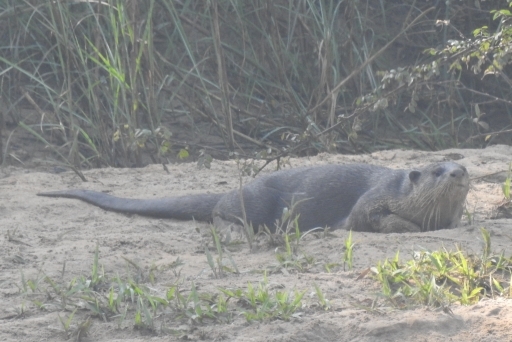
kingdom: Animalia
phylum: Chordata
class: Mammalia
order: Carnivora
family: Mustelidae
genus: Lutrogale
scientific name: Lutrogale perspicillata
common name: Smooth-coated otter
